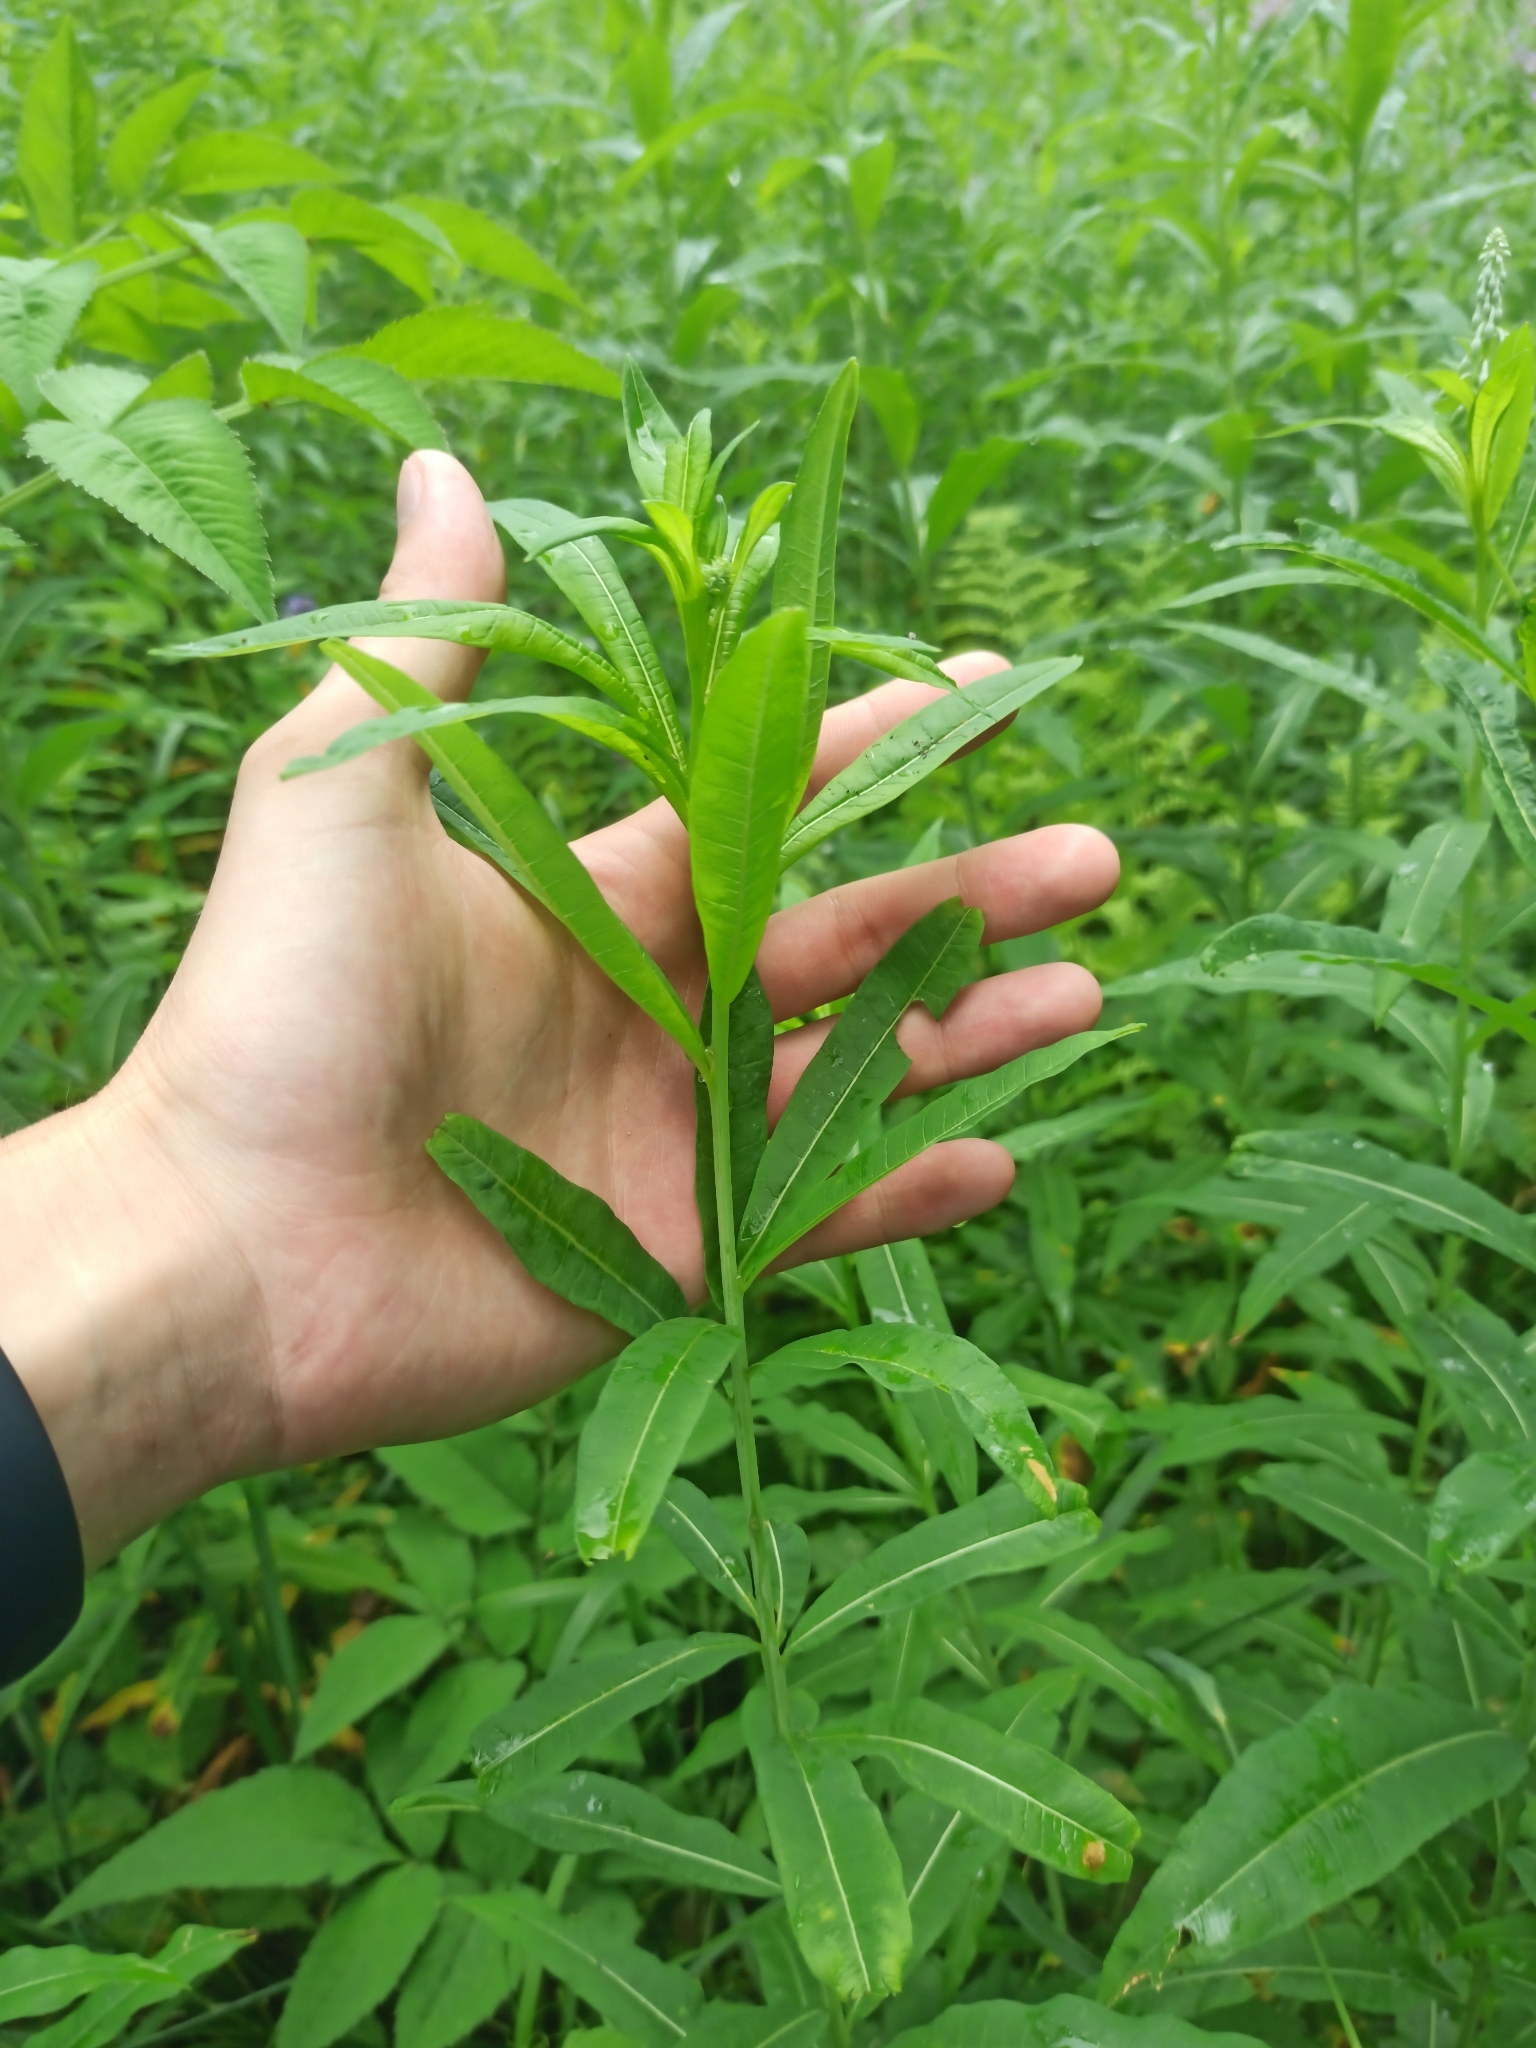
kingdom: Plantae
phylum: Tracheophyta
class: Magnoliopsida
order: Myrtales
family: Onagraceae
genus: Chamaenerion
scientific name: Chamaenerion angustifolium
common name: Fireweed
